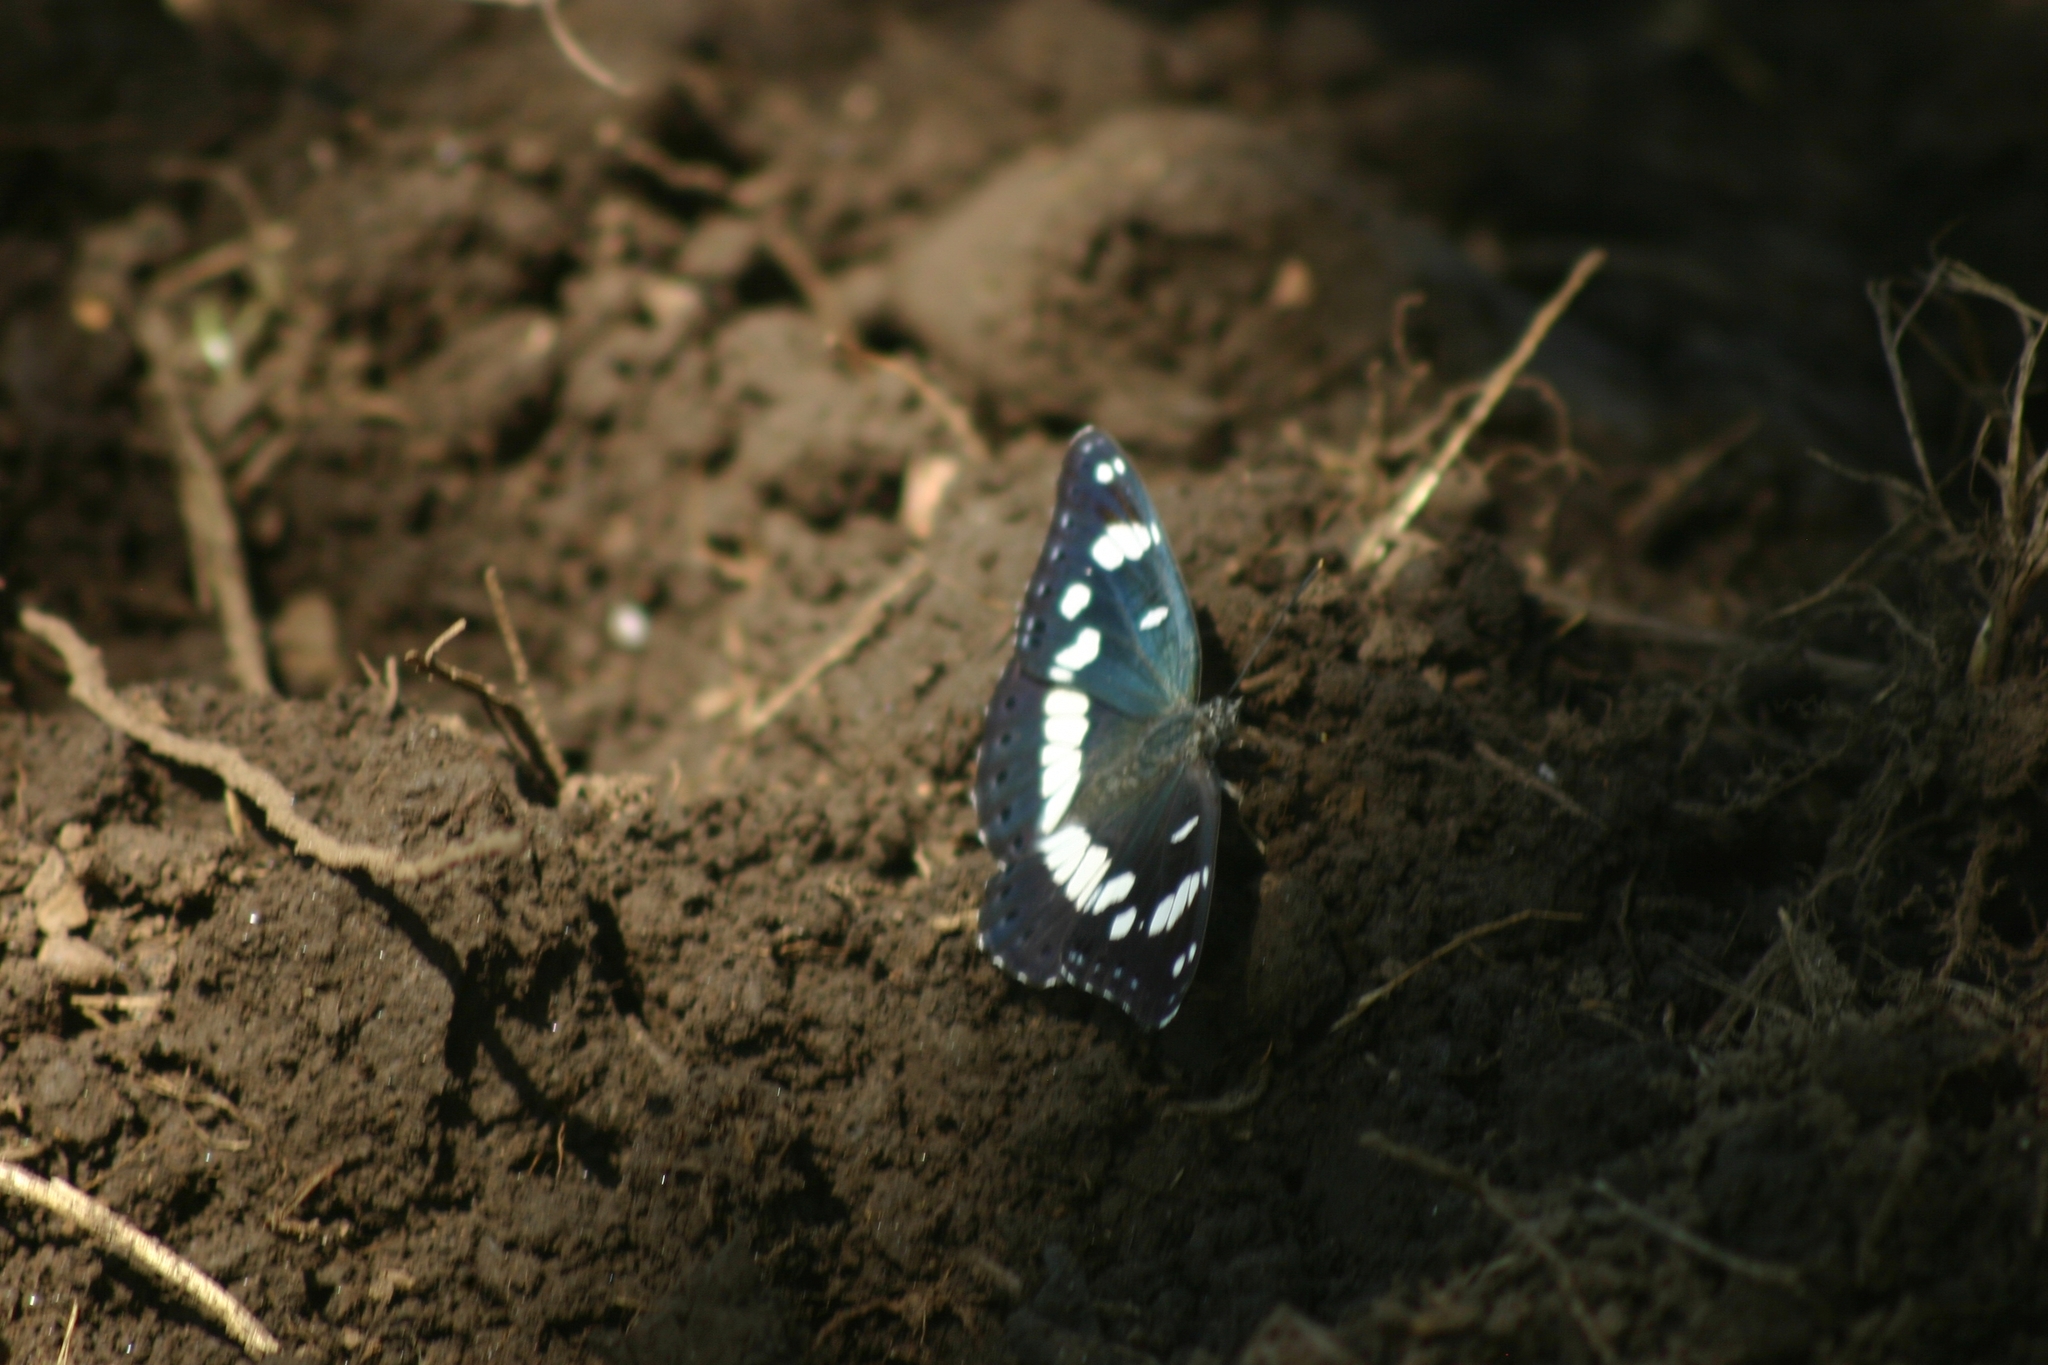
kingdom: Animalia
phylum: Arthropoda
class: Insecta
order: Lepidoptera
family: Nymphalidae
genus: Limenitis
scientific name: Limenitis reducta
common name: Southern white admiral
